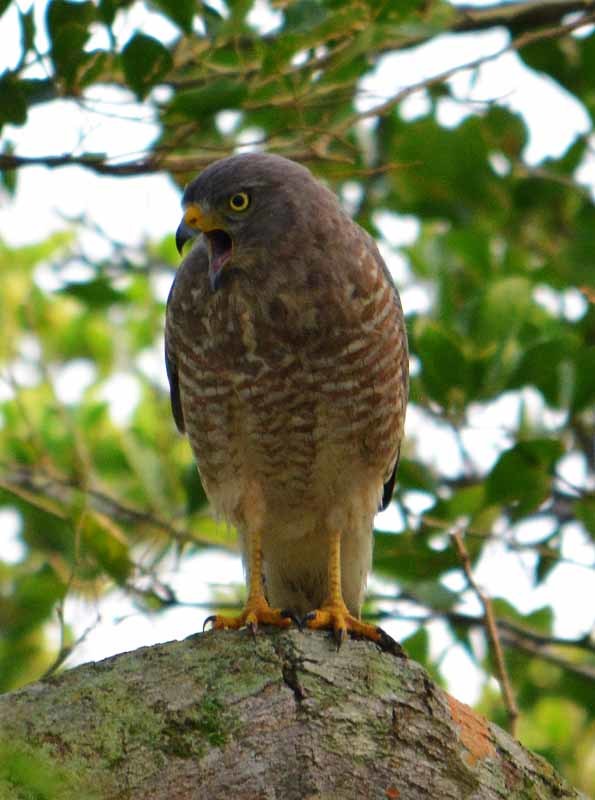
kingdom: Animalia
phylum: Chordata
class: Aves
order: Accipitriformes
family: Accipitridae
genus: Rupornis
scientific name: Rupornis magnirostris
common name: Roadside hawk
